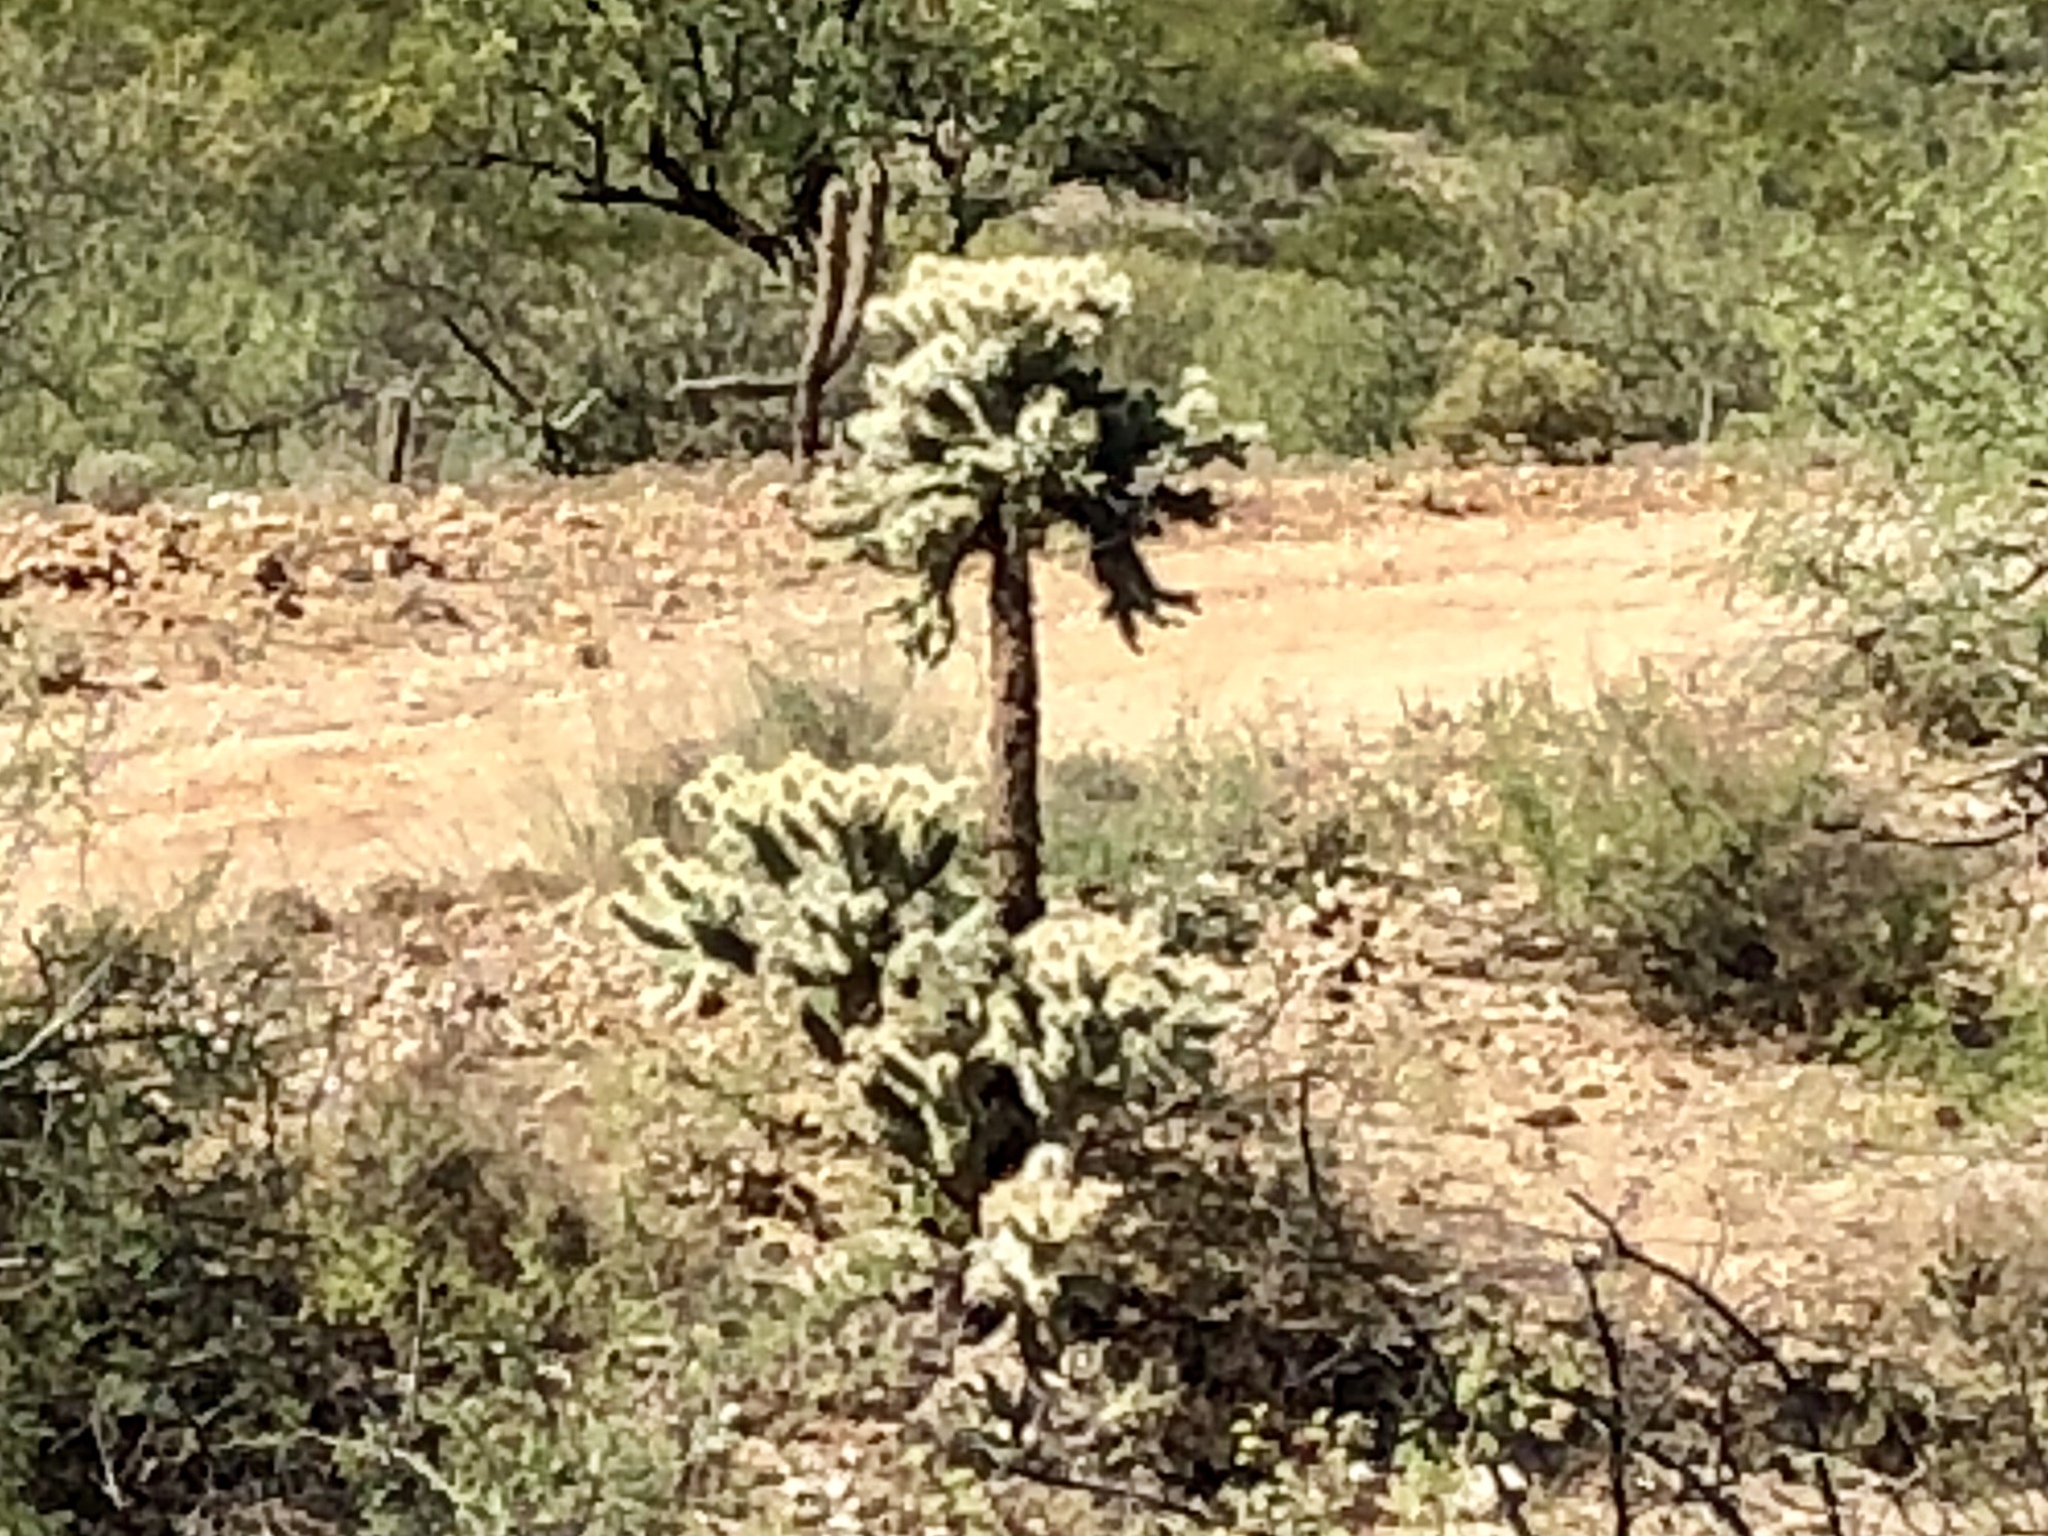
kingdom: Plantae
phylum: Tracheophyta
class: Magnoliopsida
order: Caryophyllales
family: Cactaceae
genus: Cylindropuntia
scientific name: Cylindropuntia fulgida
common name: Jumping cholla
